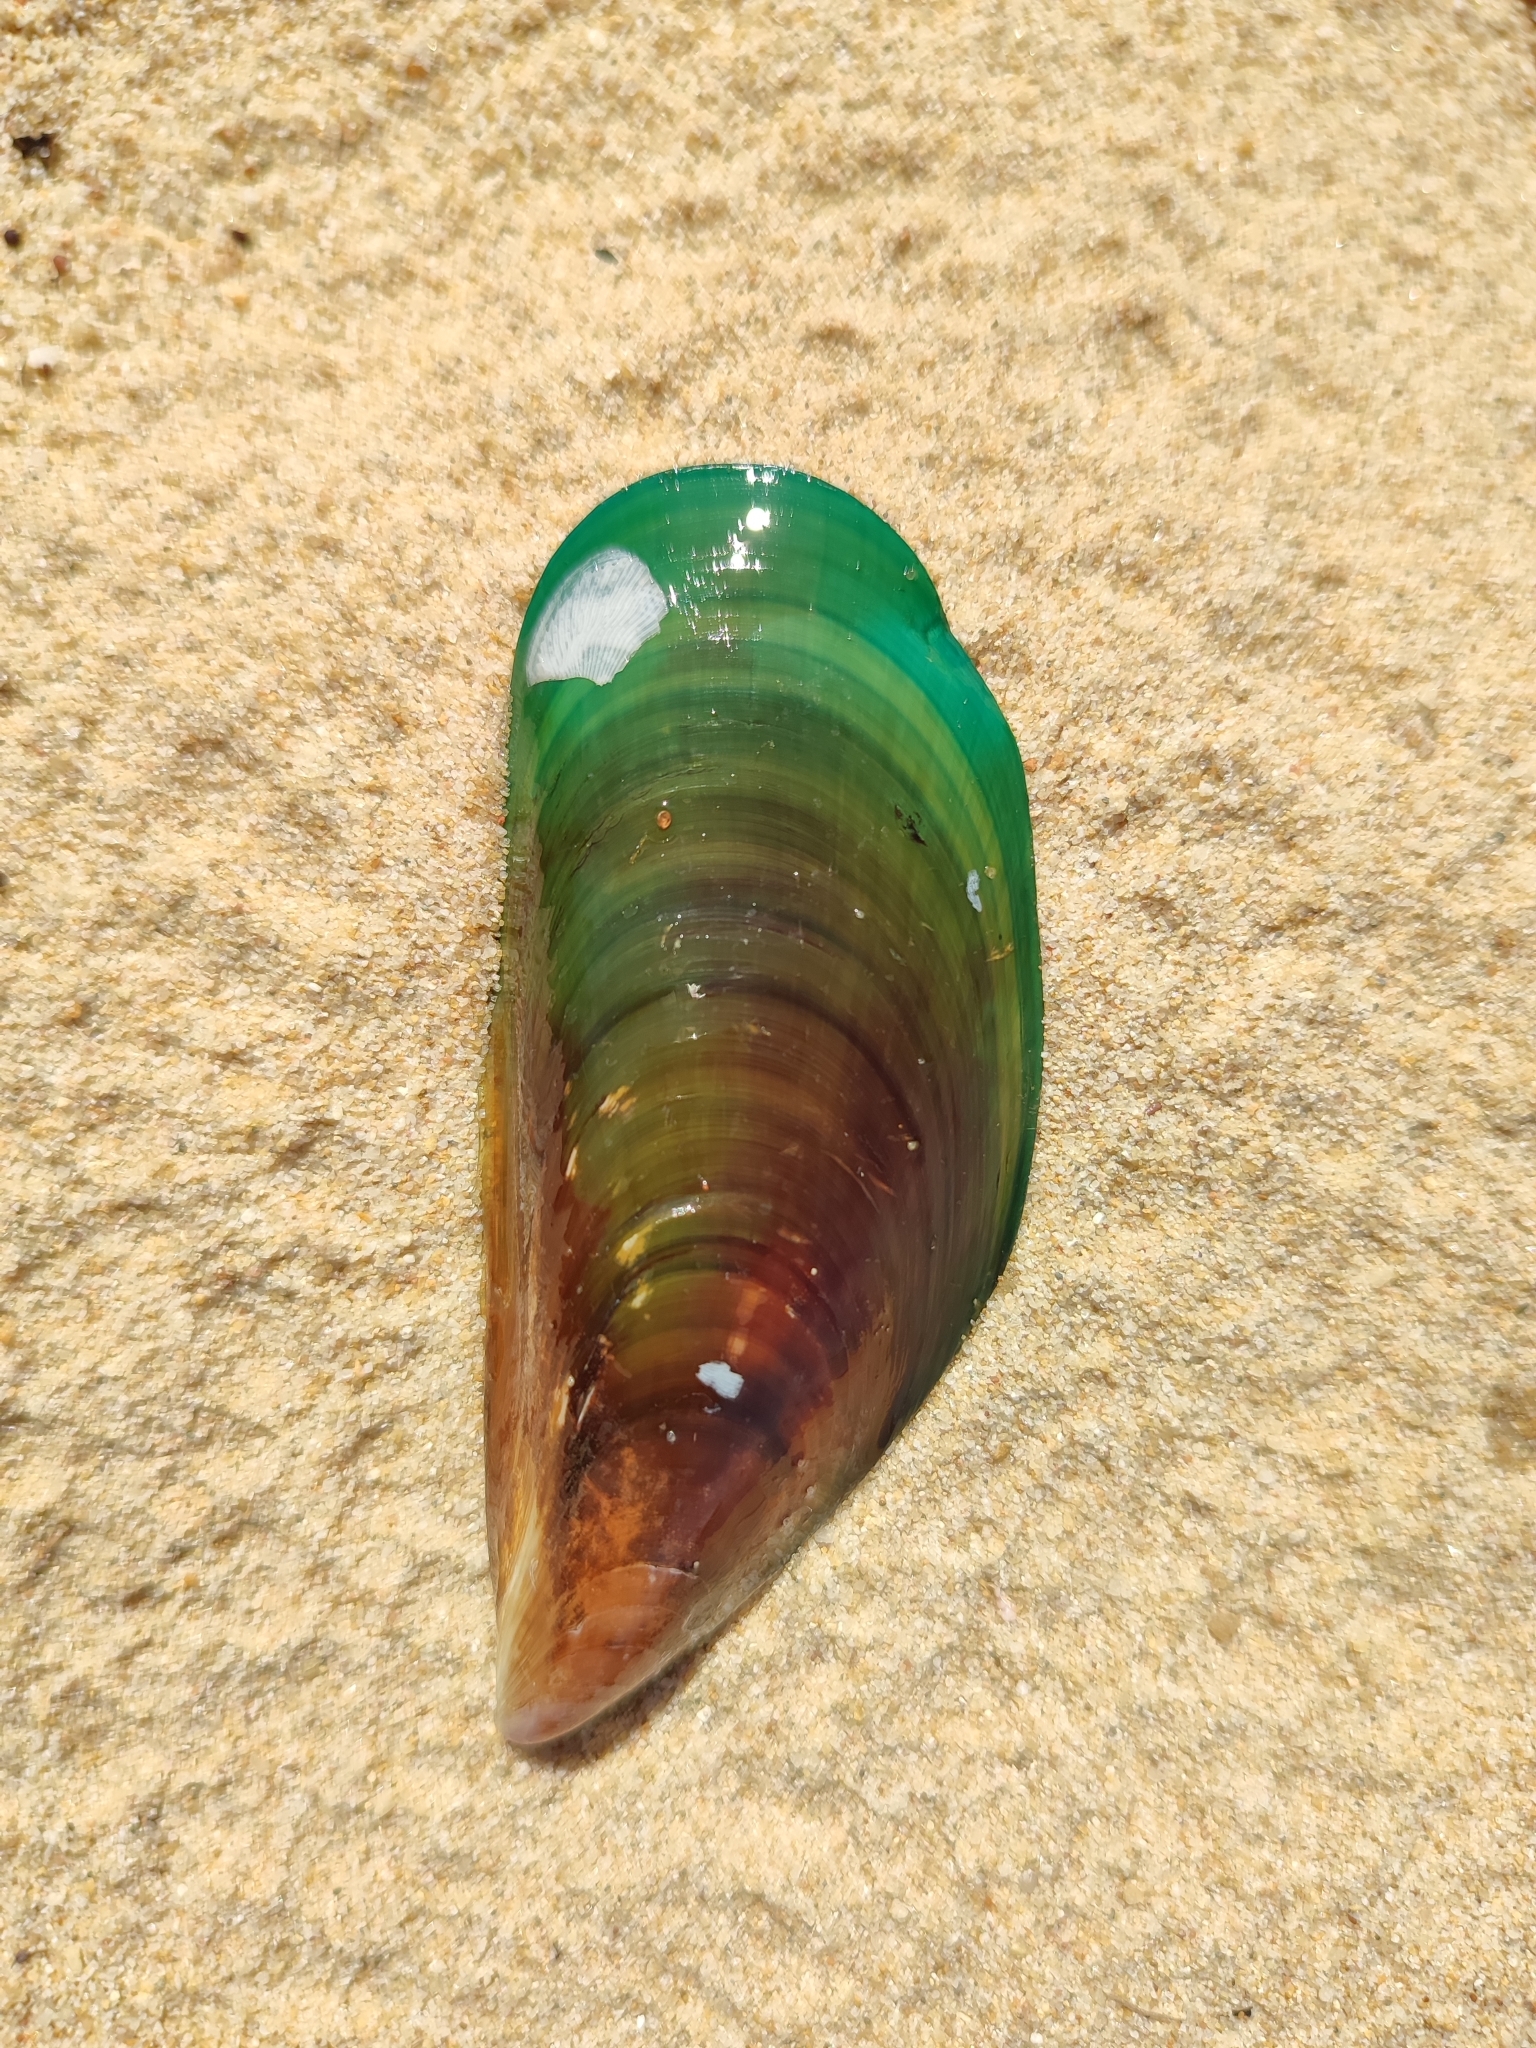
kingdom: Animalia
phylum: Mollusca
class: Bivalvia
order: Mytilida
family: Mytilidae
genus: Perna
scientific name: Perna viridis
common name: Green mussel
